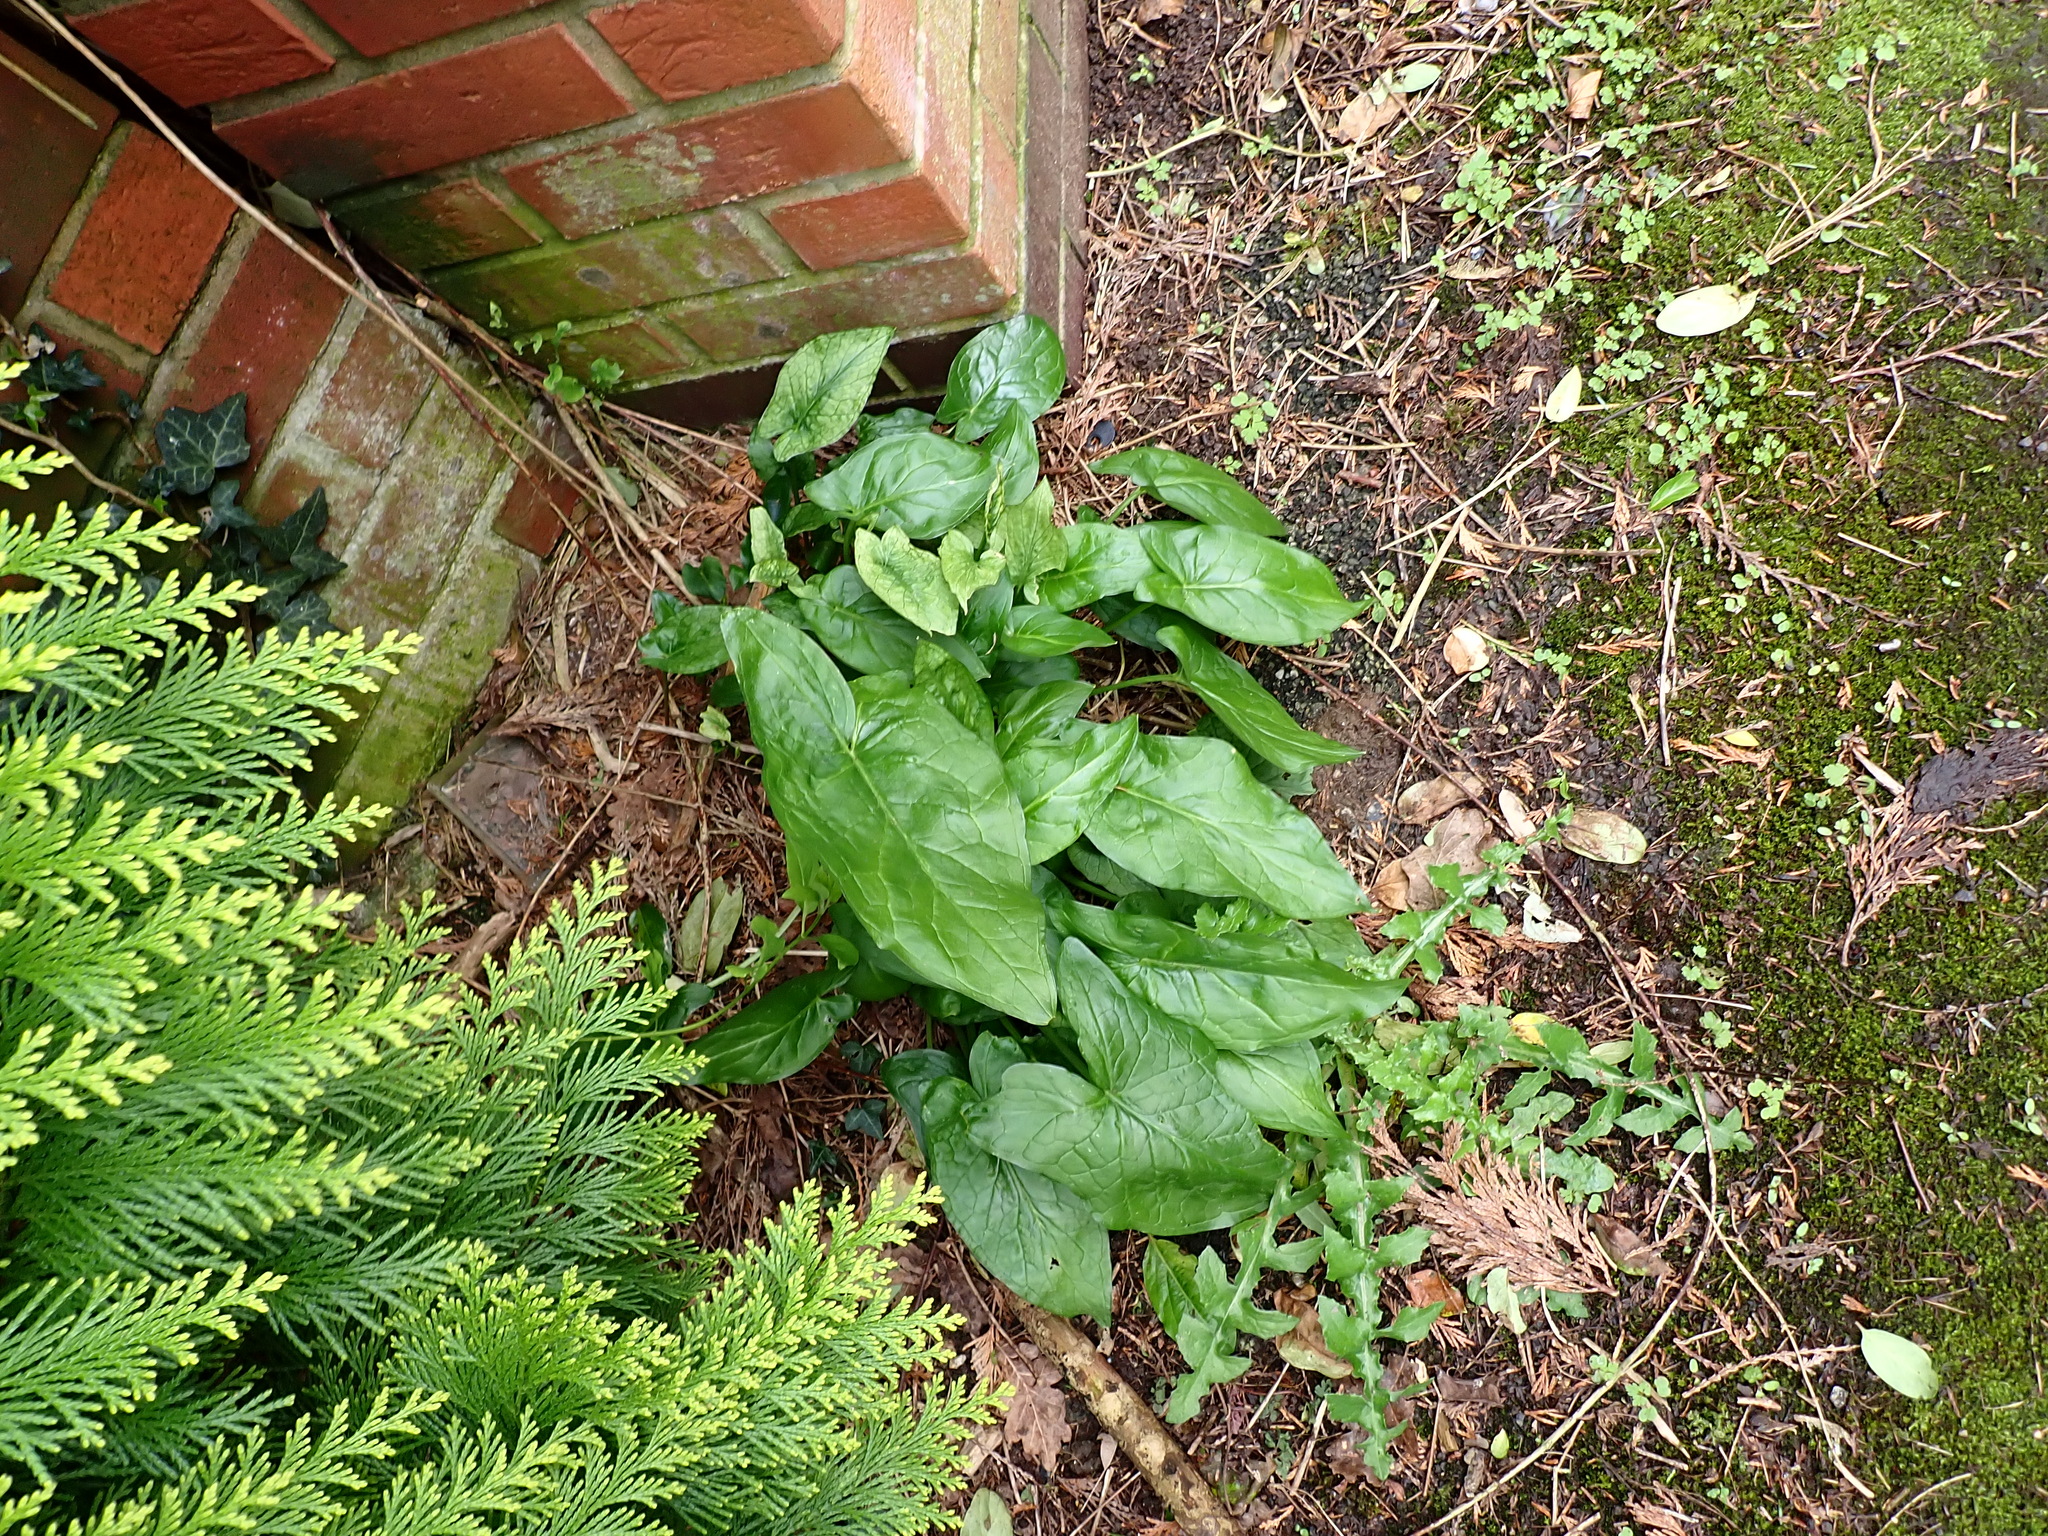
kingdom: Plantae
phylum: Tracheophyta
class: Liliopsida
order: Alismatales
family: Araceae
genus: Arum
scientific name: Arum maculatum
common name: Lords-and-ladies
